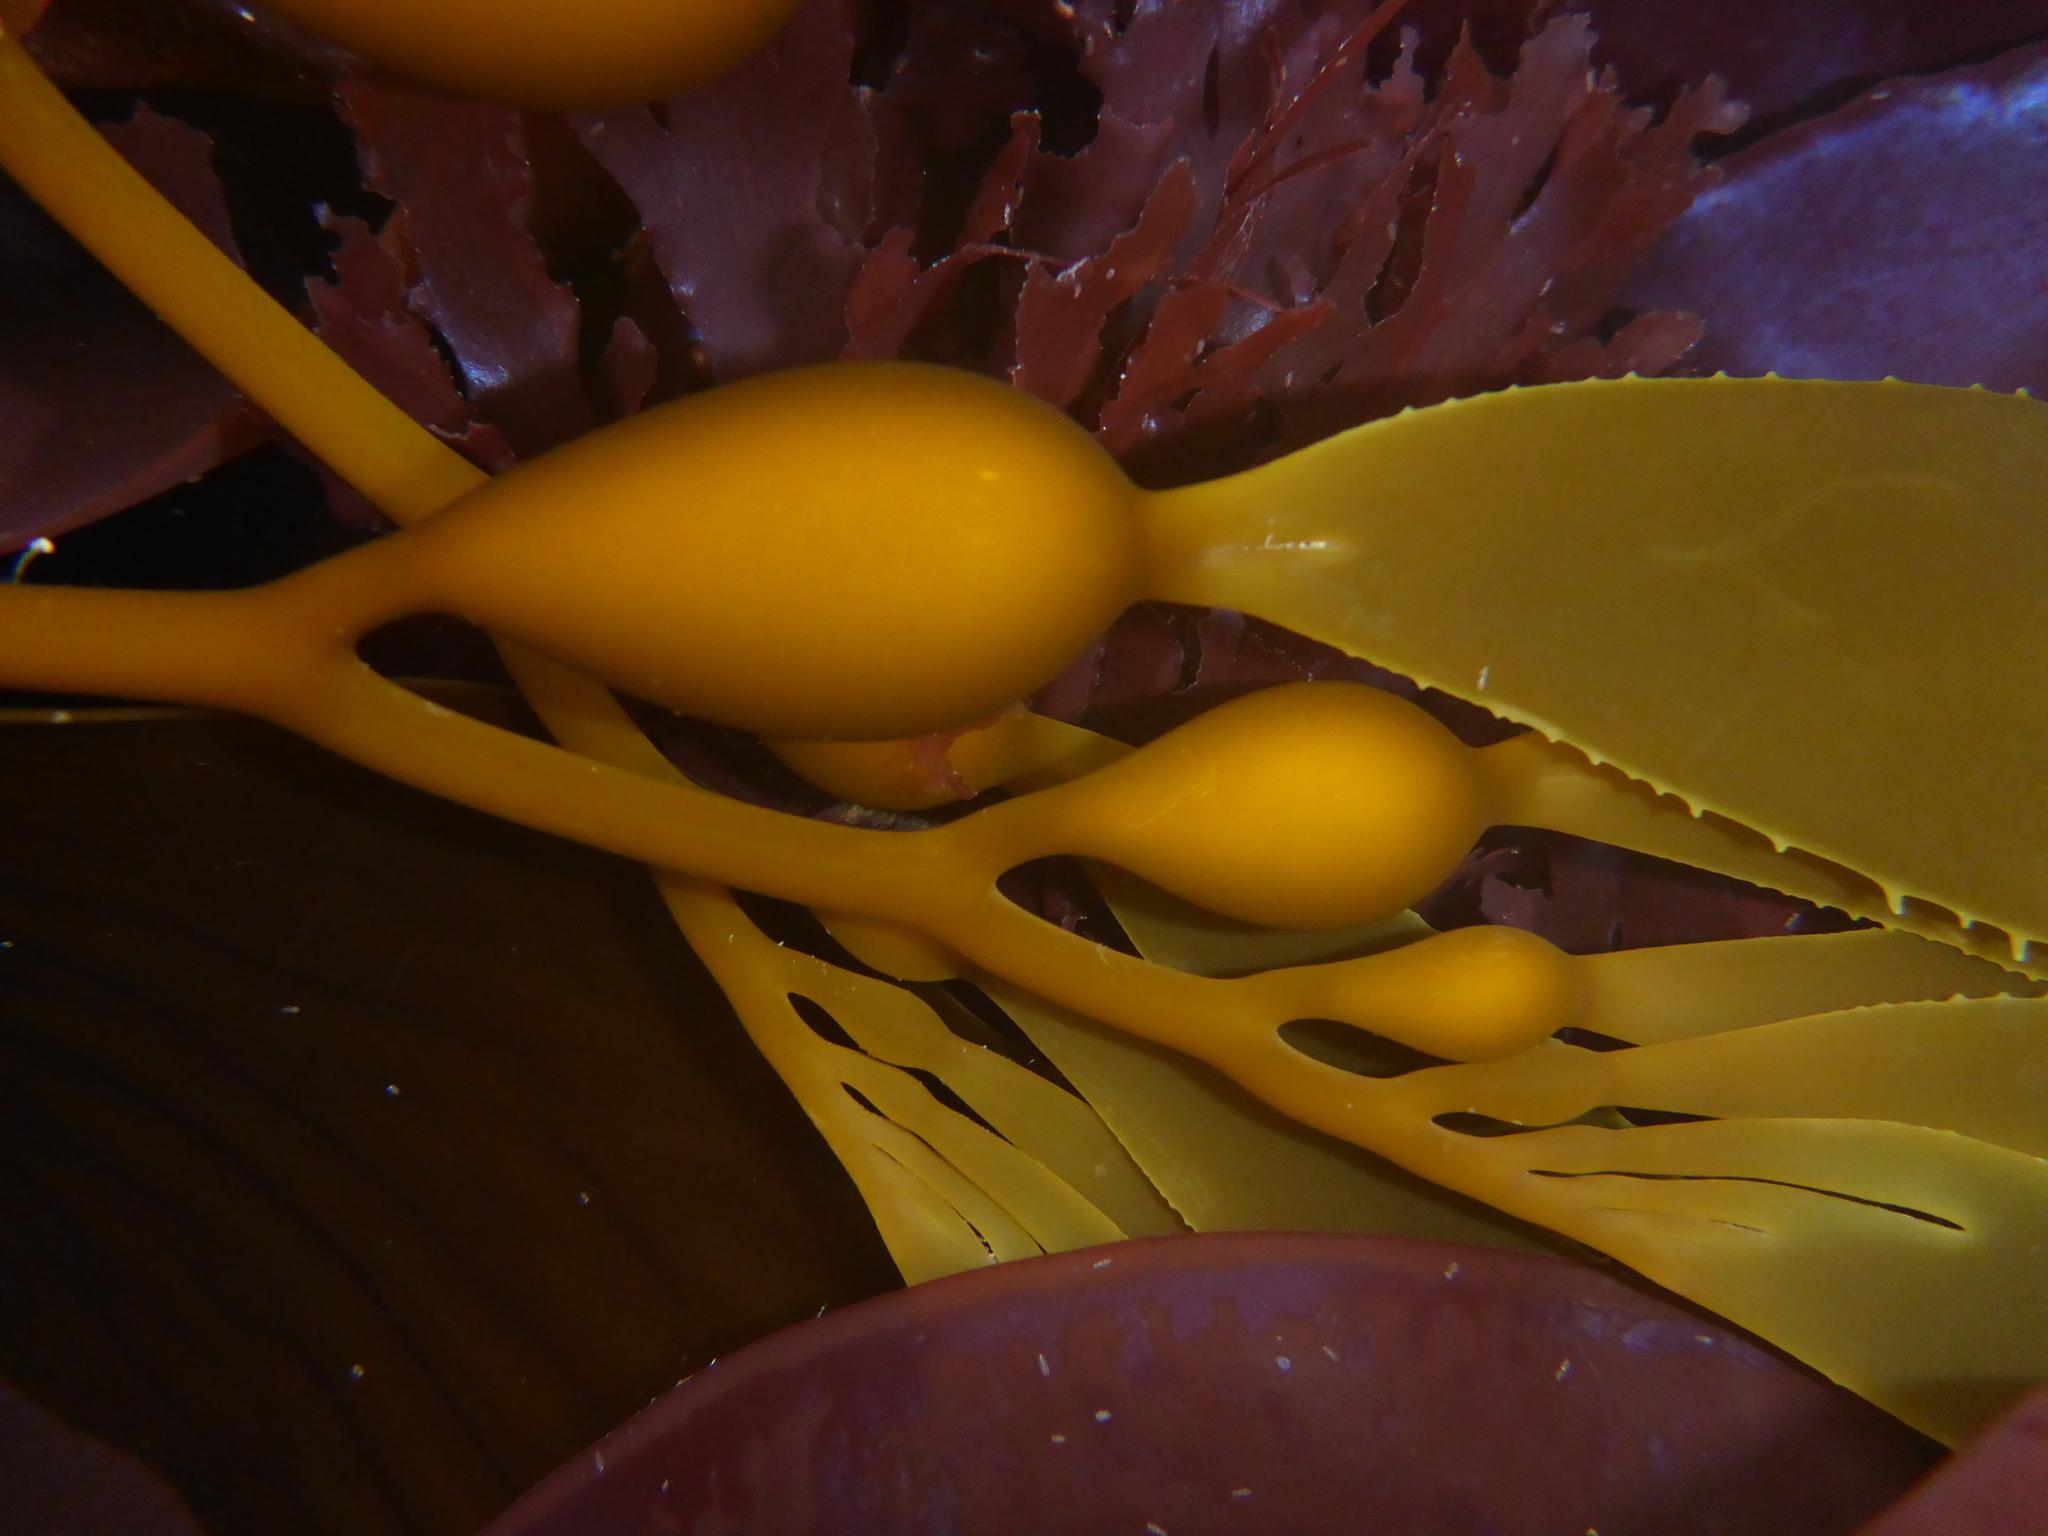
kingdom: Chromista
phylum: Ochrophyta
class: Phaeophyceae
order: Laminariales
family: Laminariaceae
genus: Macrocystis
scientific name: Macrocystis pyrifera
